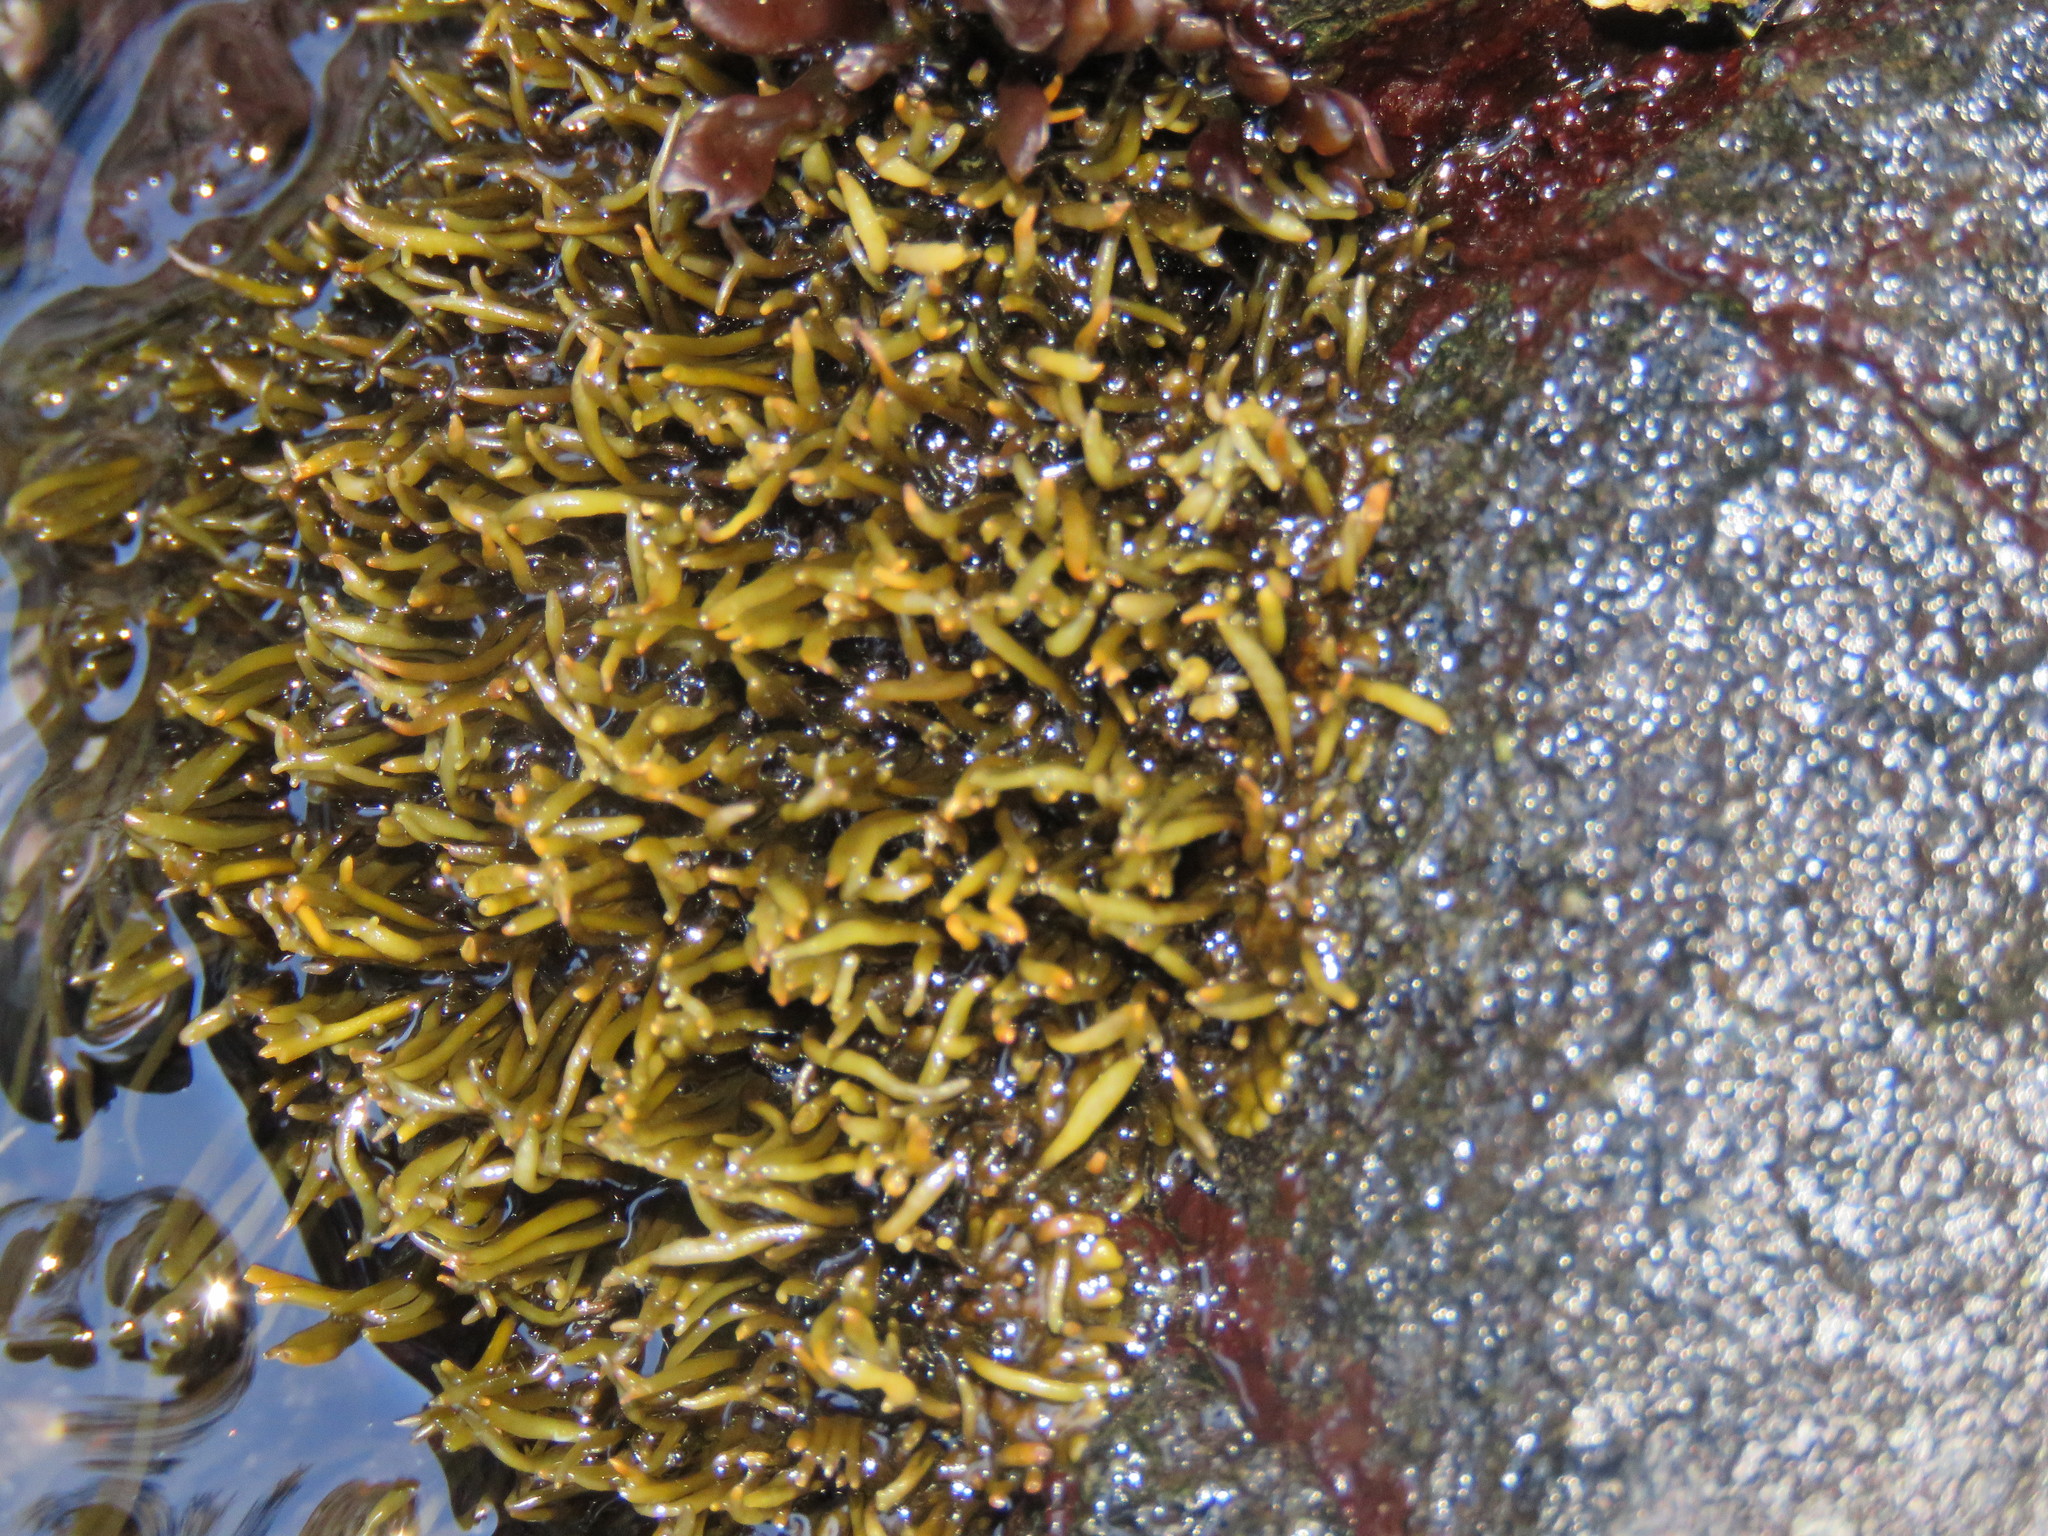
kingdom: Chromista
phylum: Ochrophyta
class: Phaeophyceae
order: Scytosiphonales
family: Scytosiphonaceae
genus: Analipus
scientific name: Analipus japonicus
